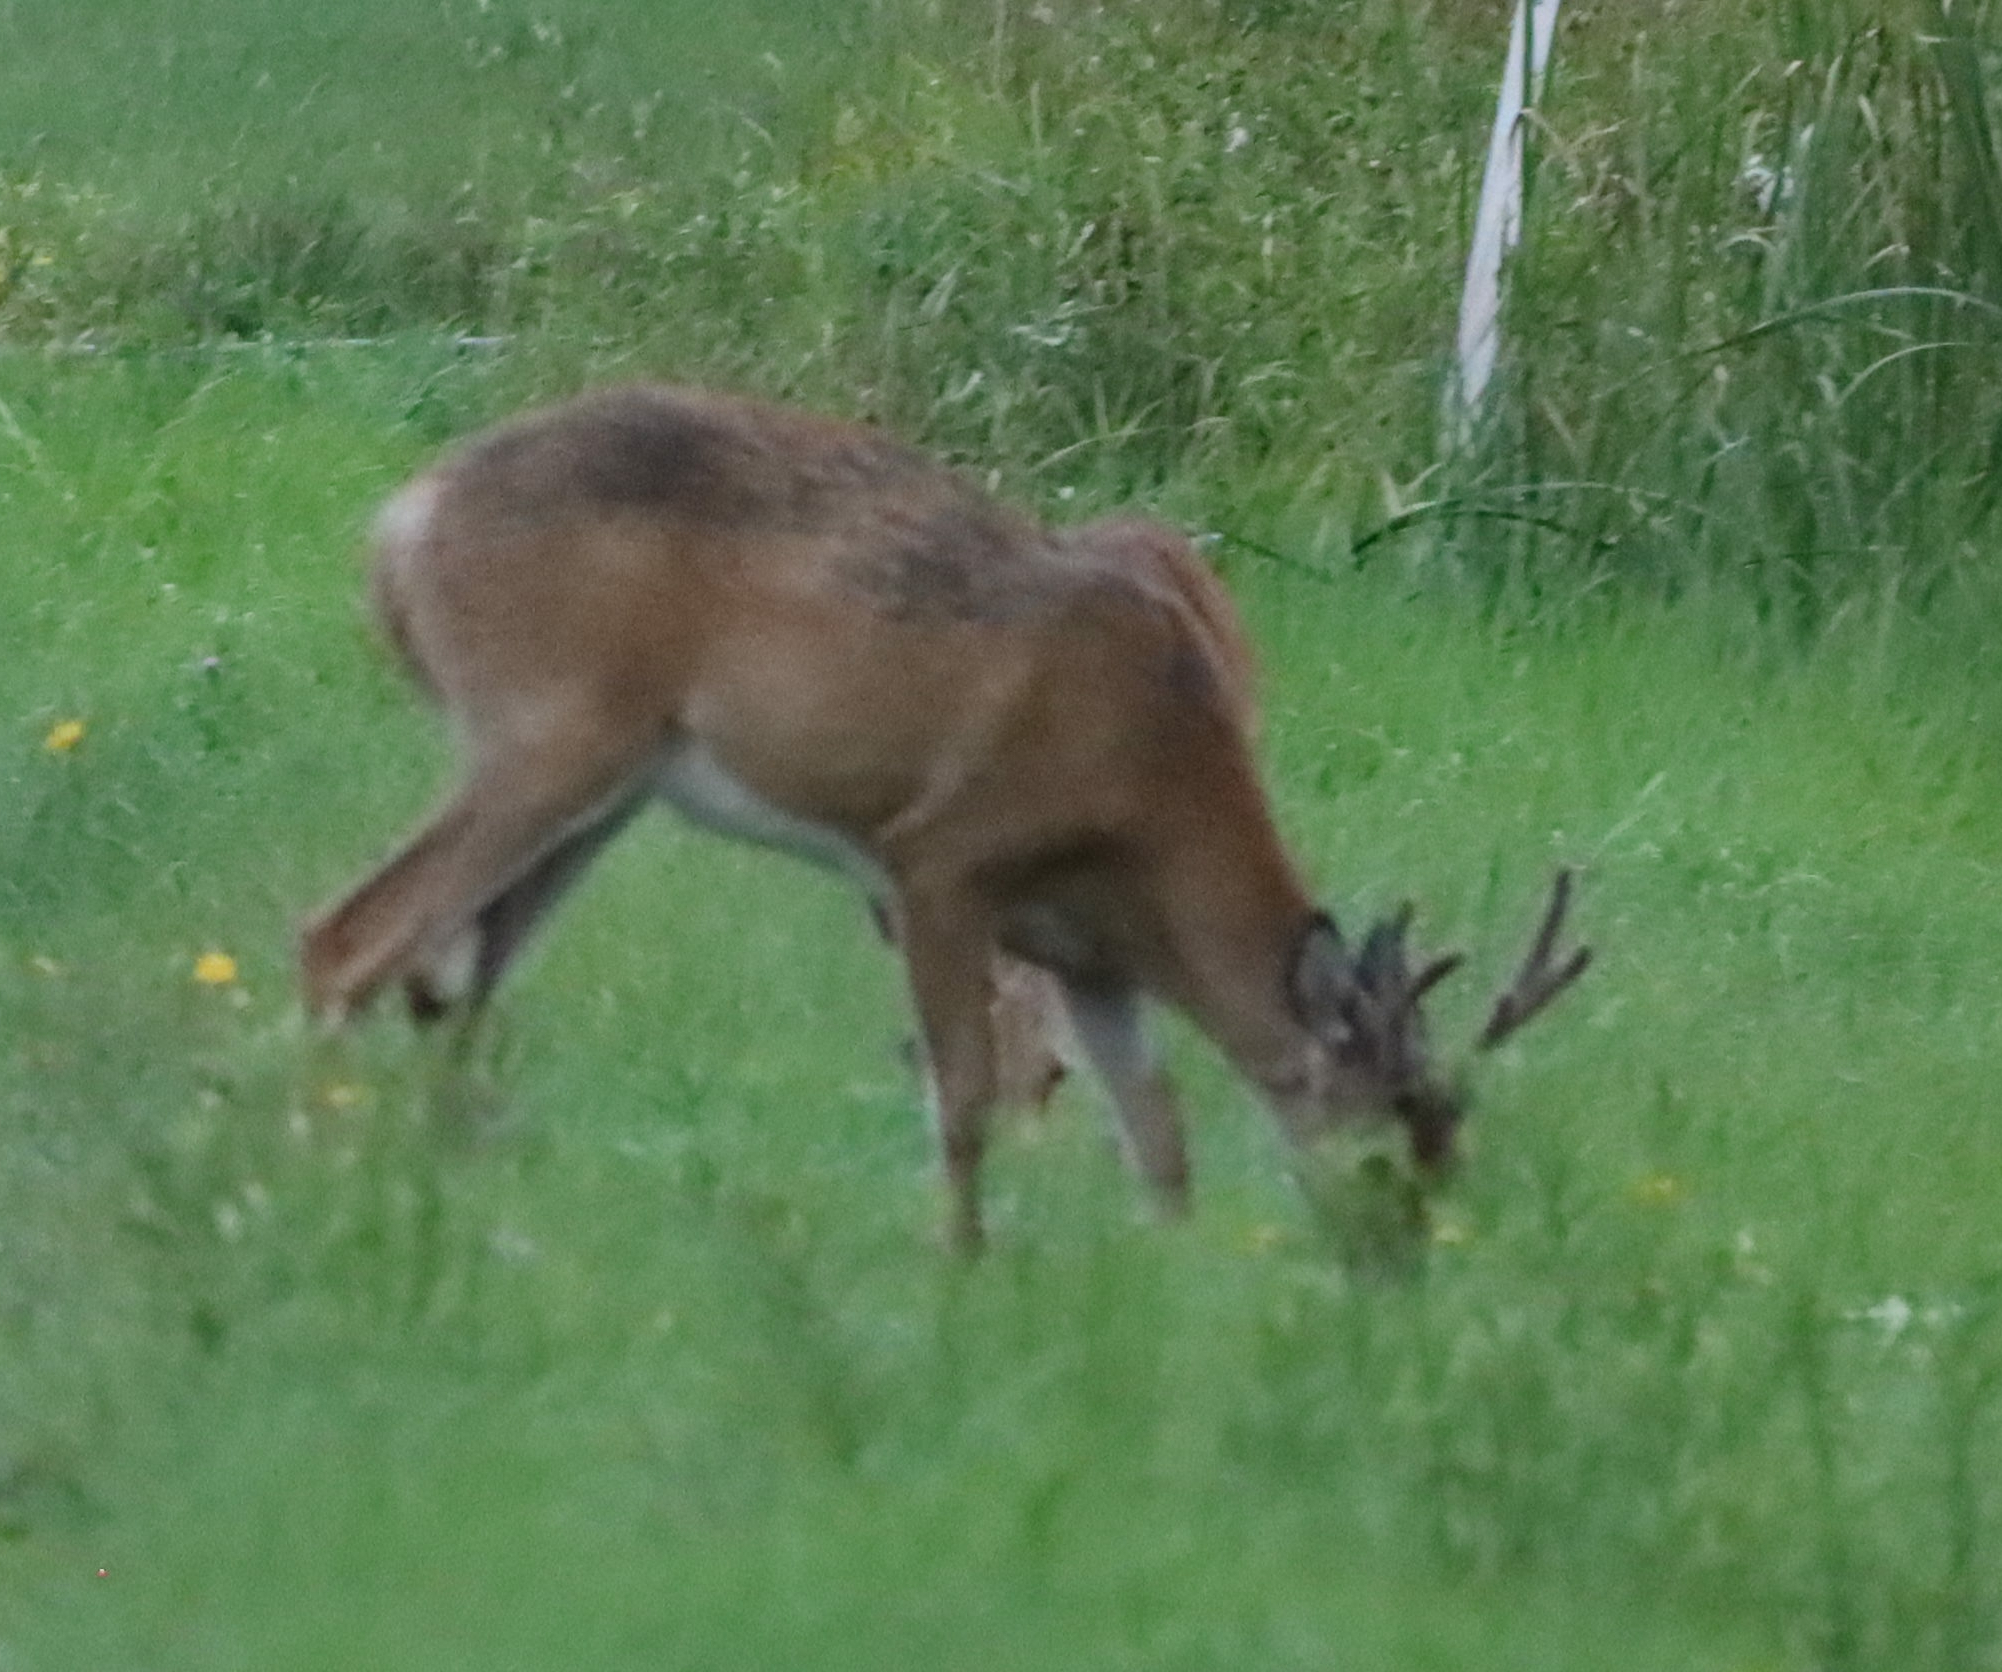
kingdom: Animalia
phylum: Chordata
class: Mammalia
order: Artiodactyla
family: Cervidae
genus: Odocoileus
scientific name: Odocoileus virginianus
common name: White-tailed deer
